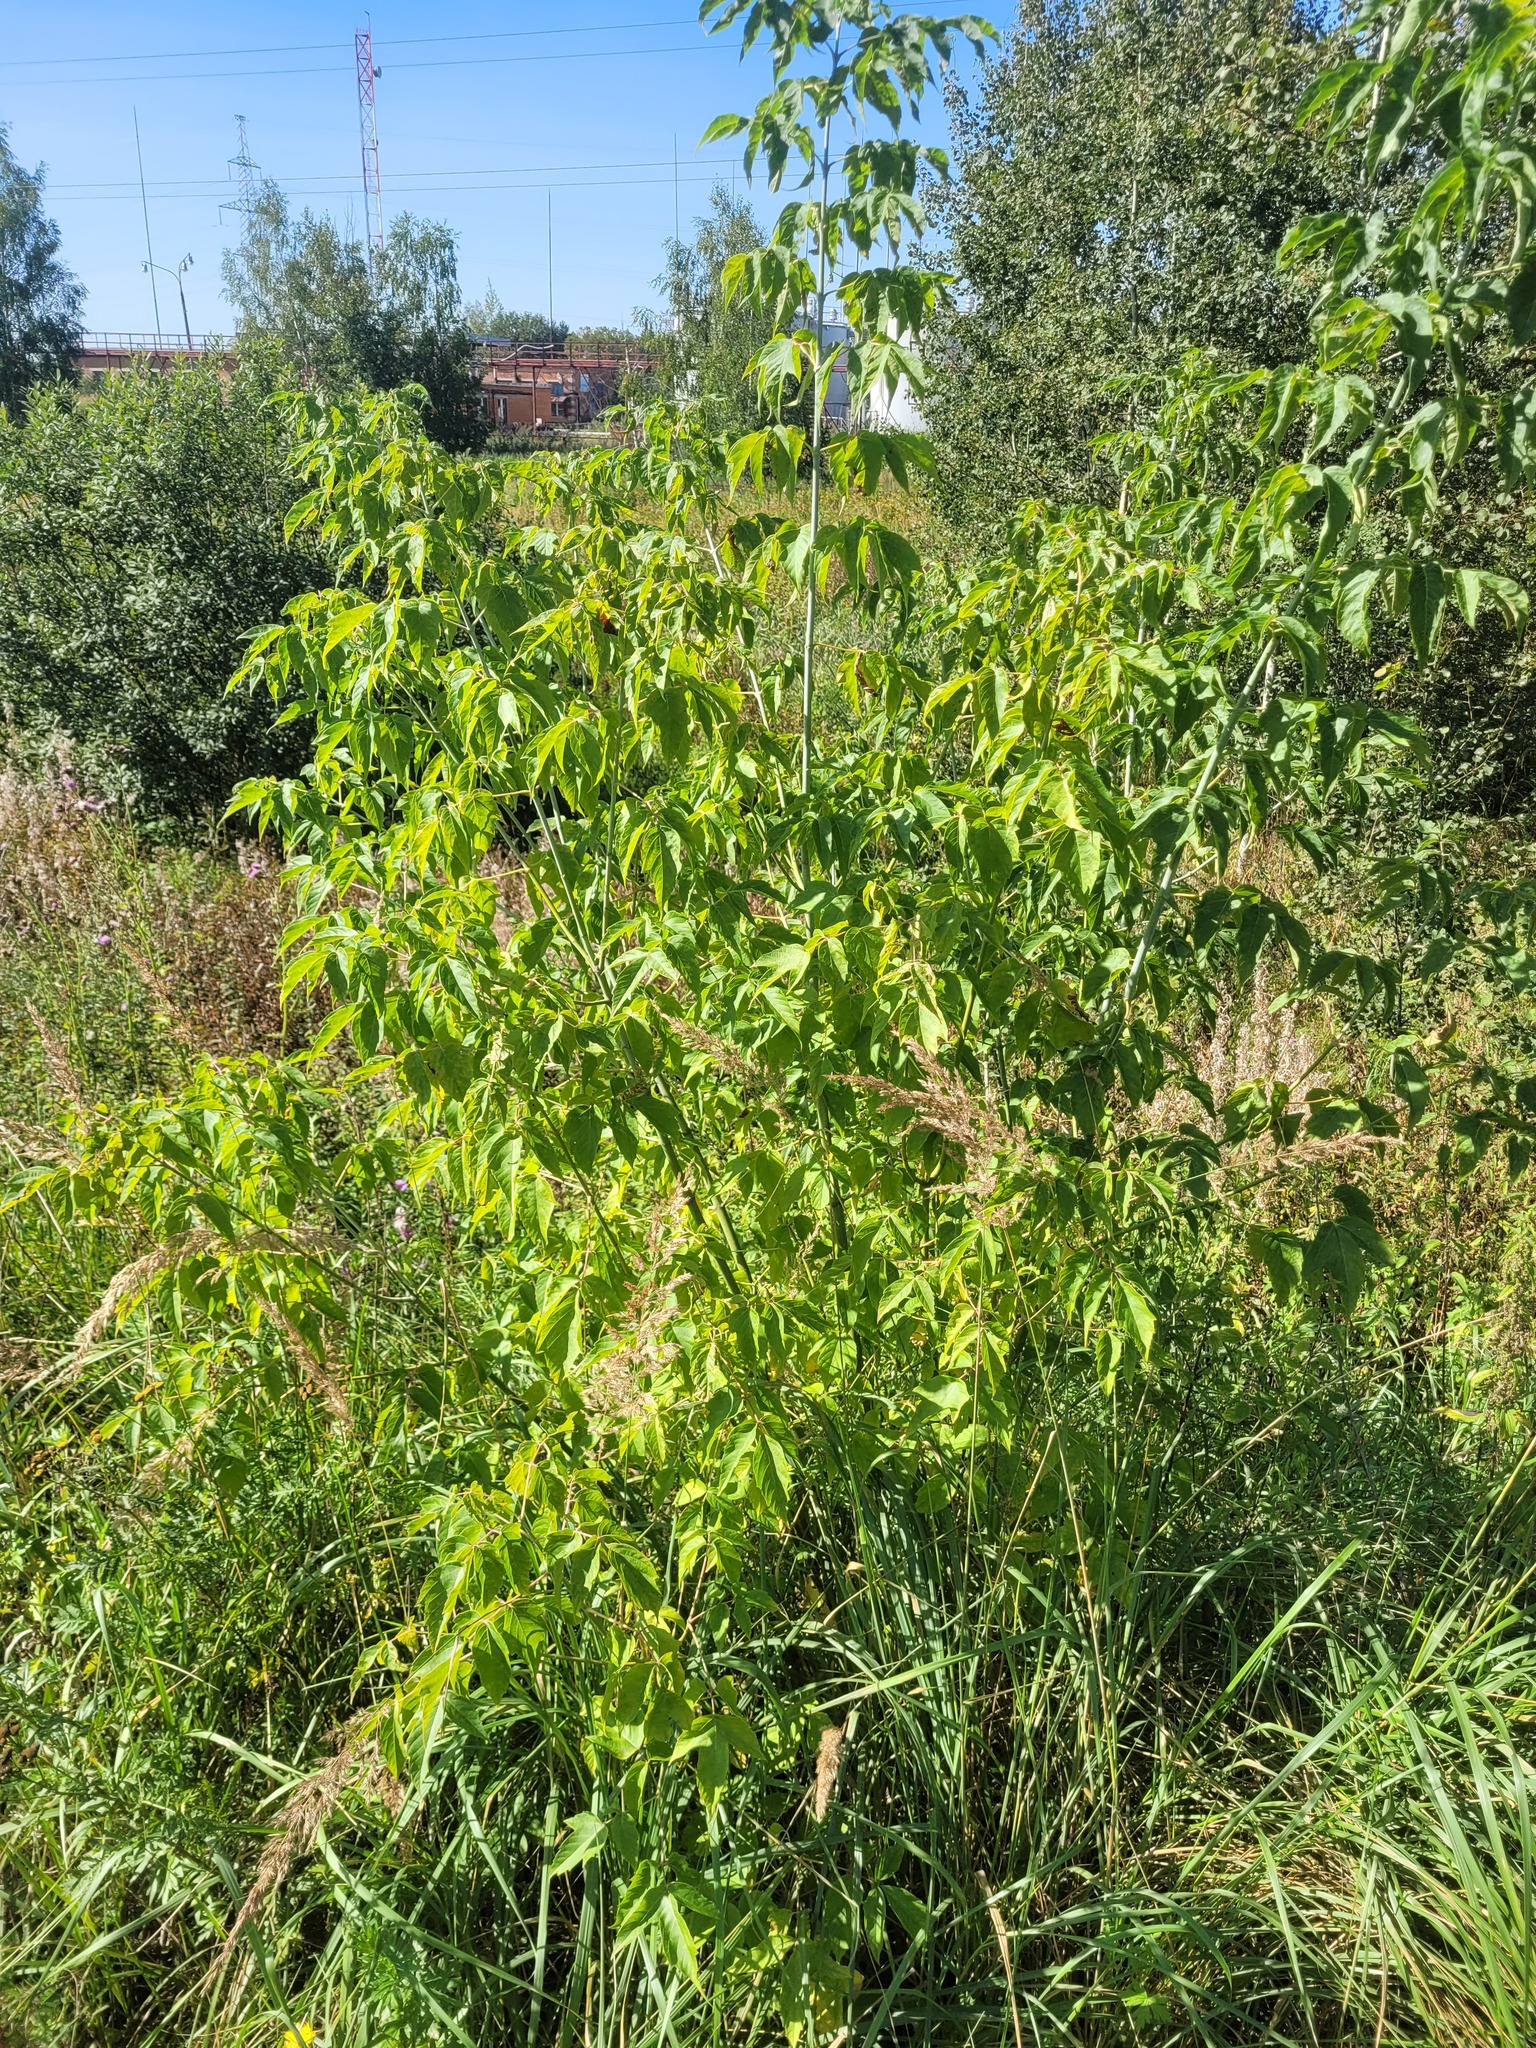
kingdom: Plantae
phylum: Tracheophyta
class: Magnoliopsida
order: Sapindales
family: Sapindaceae
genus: Acer
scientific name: Acer negundo
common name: Ashleaf maple
